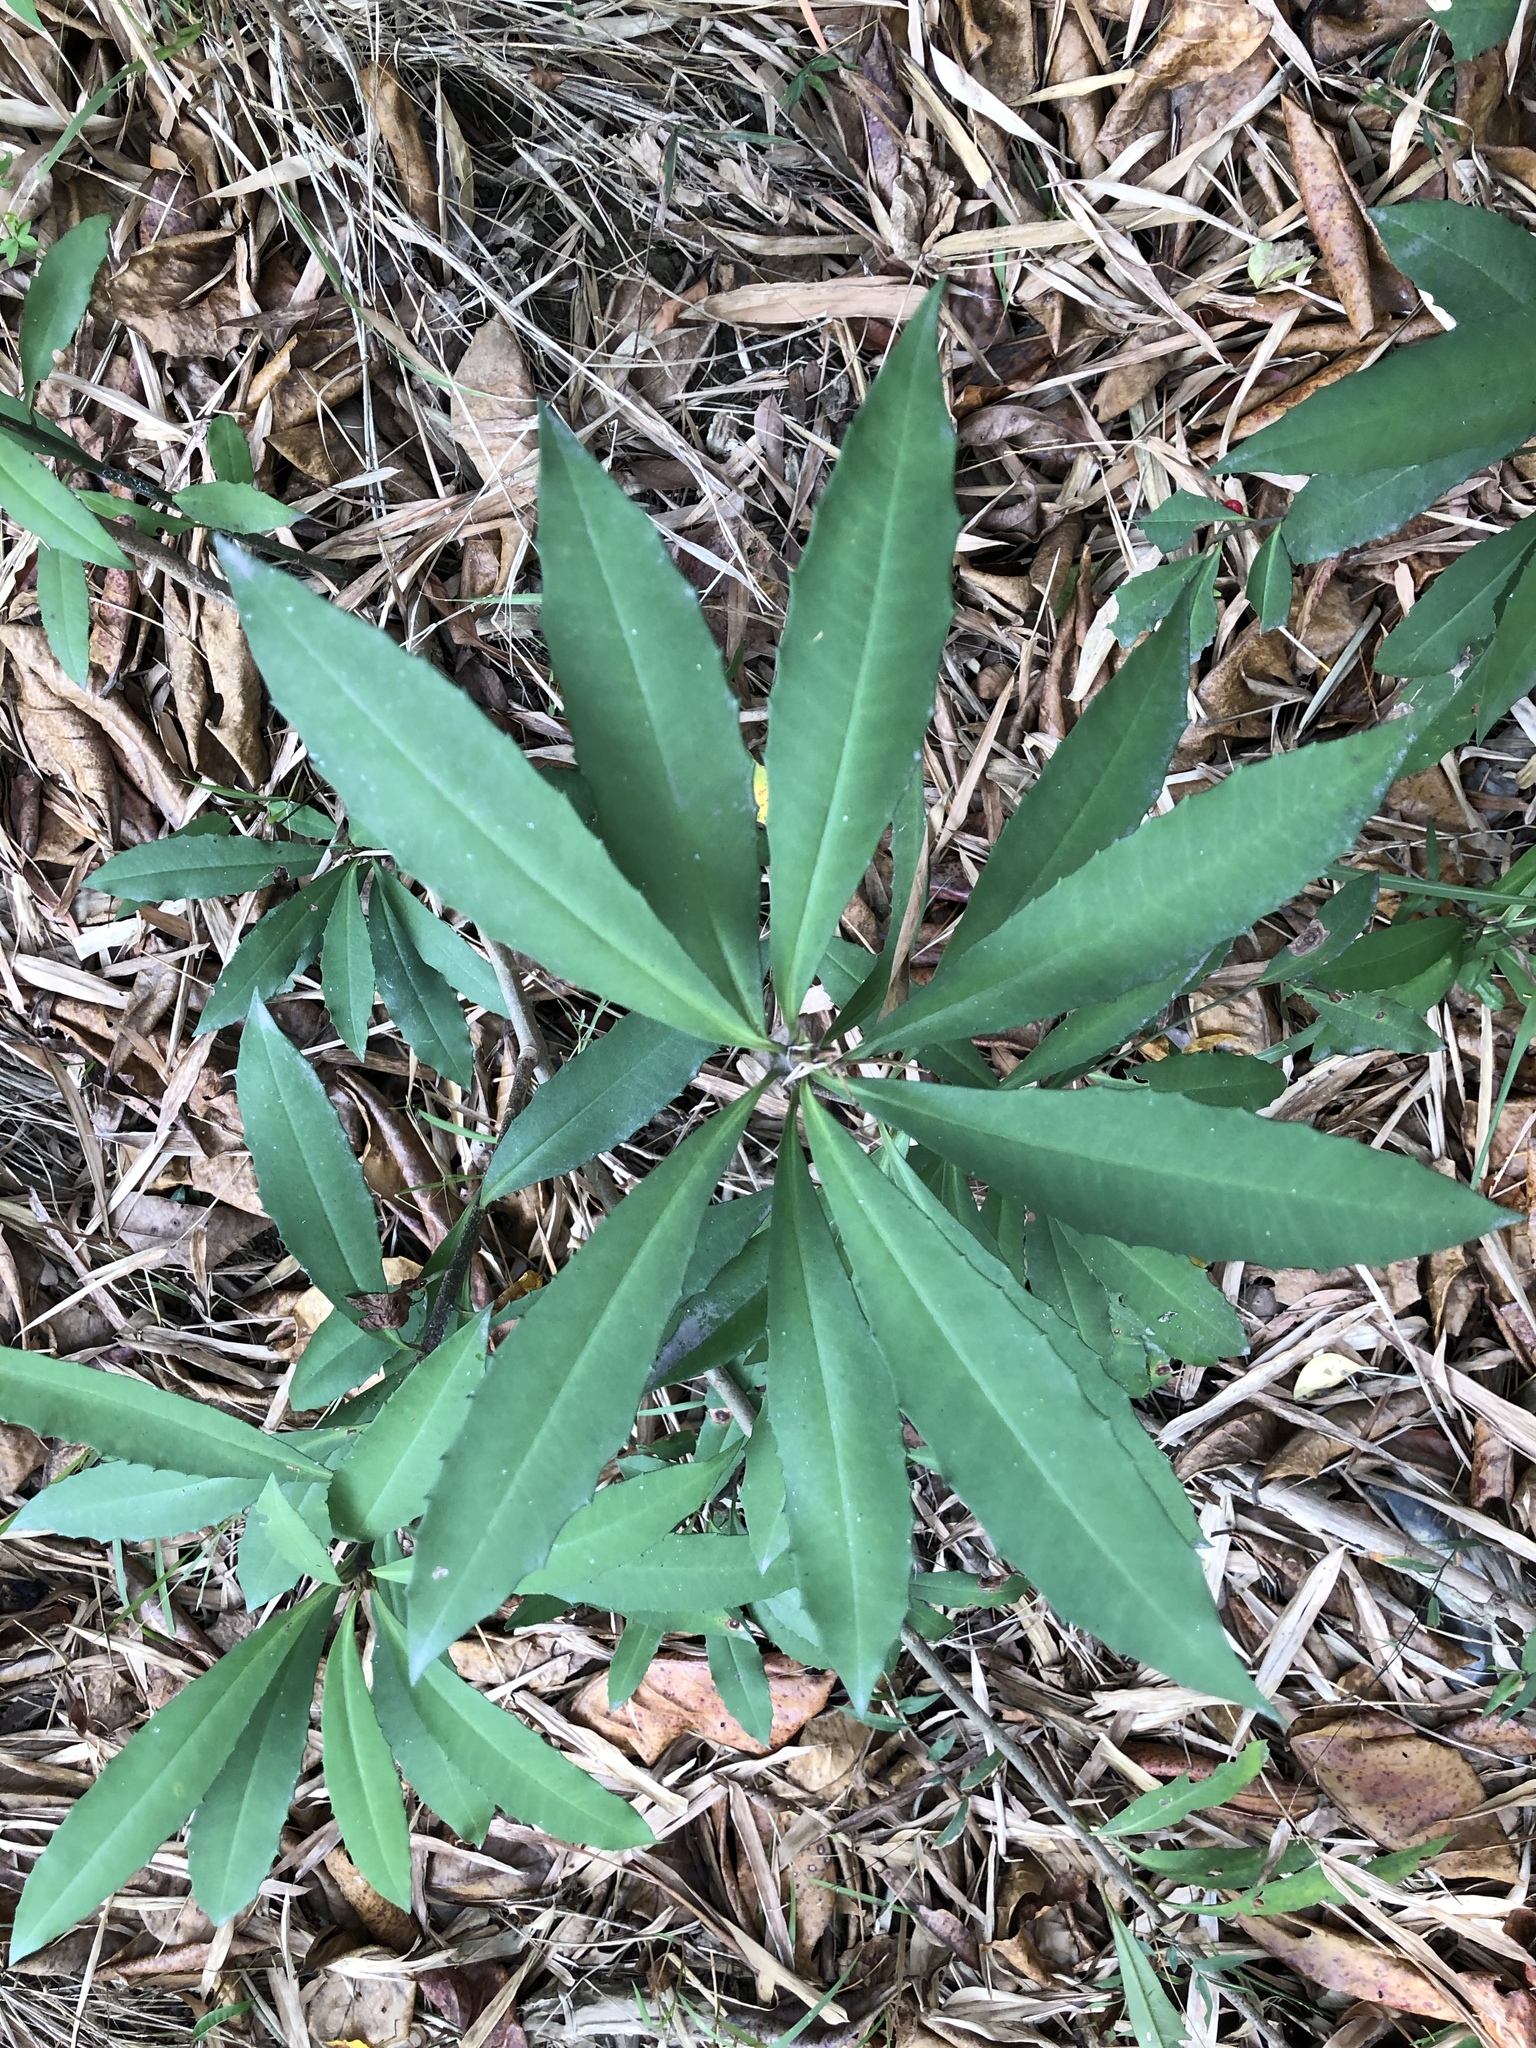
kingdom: Plantae
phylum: Tracheophyta
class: Magnoliopsida
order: Ericales
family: Primulaceae
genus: Ardisia
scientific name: Ardisia cornudentata
